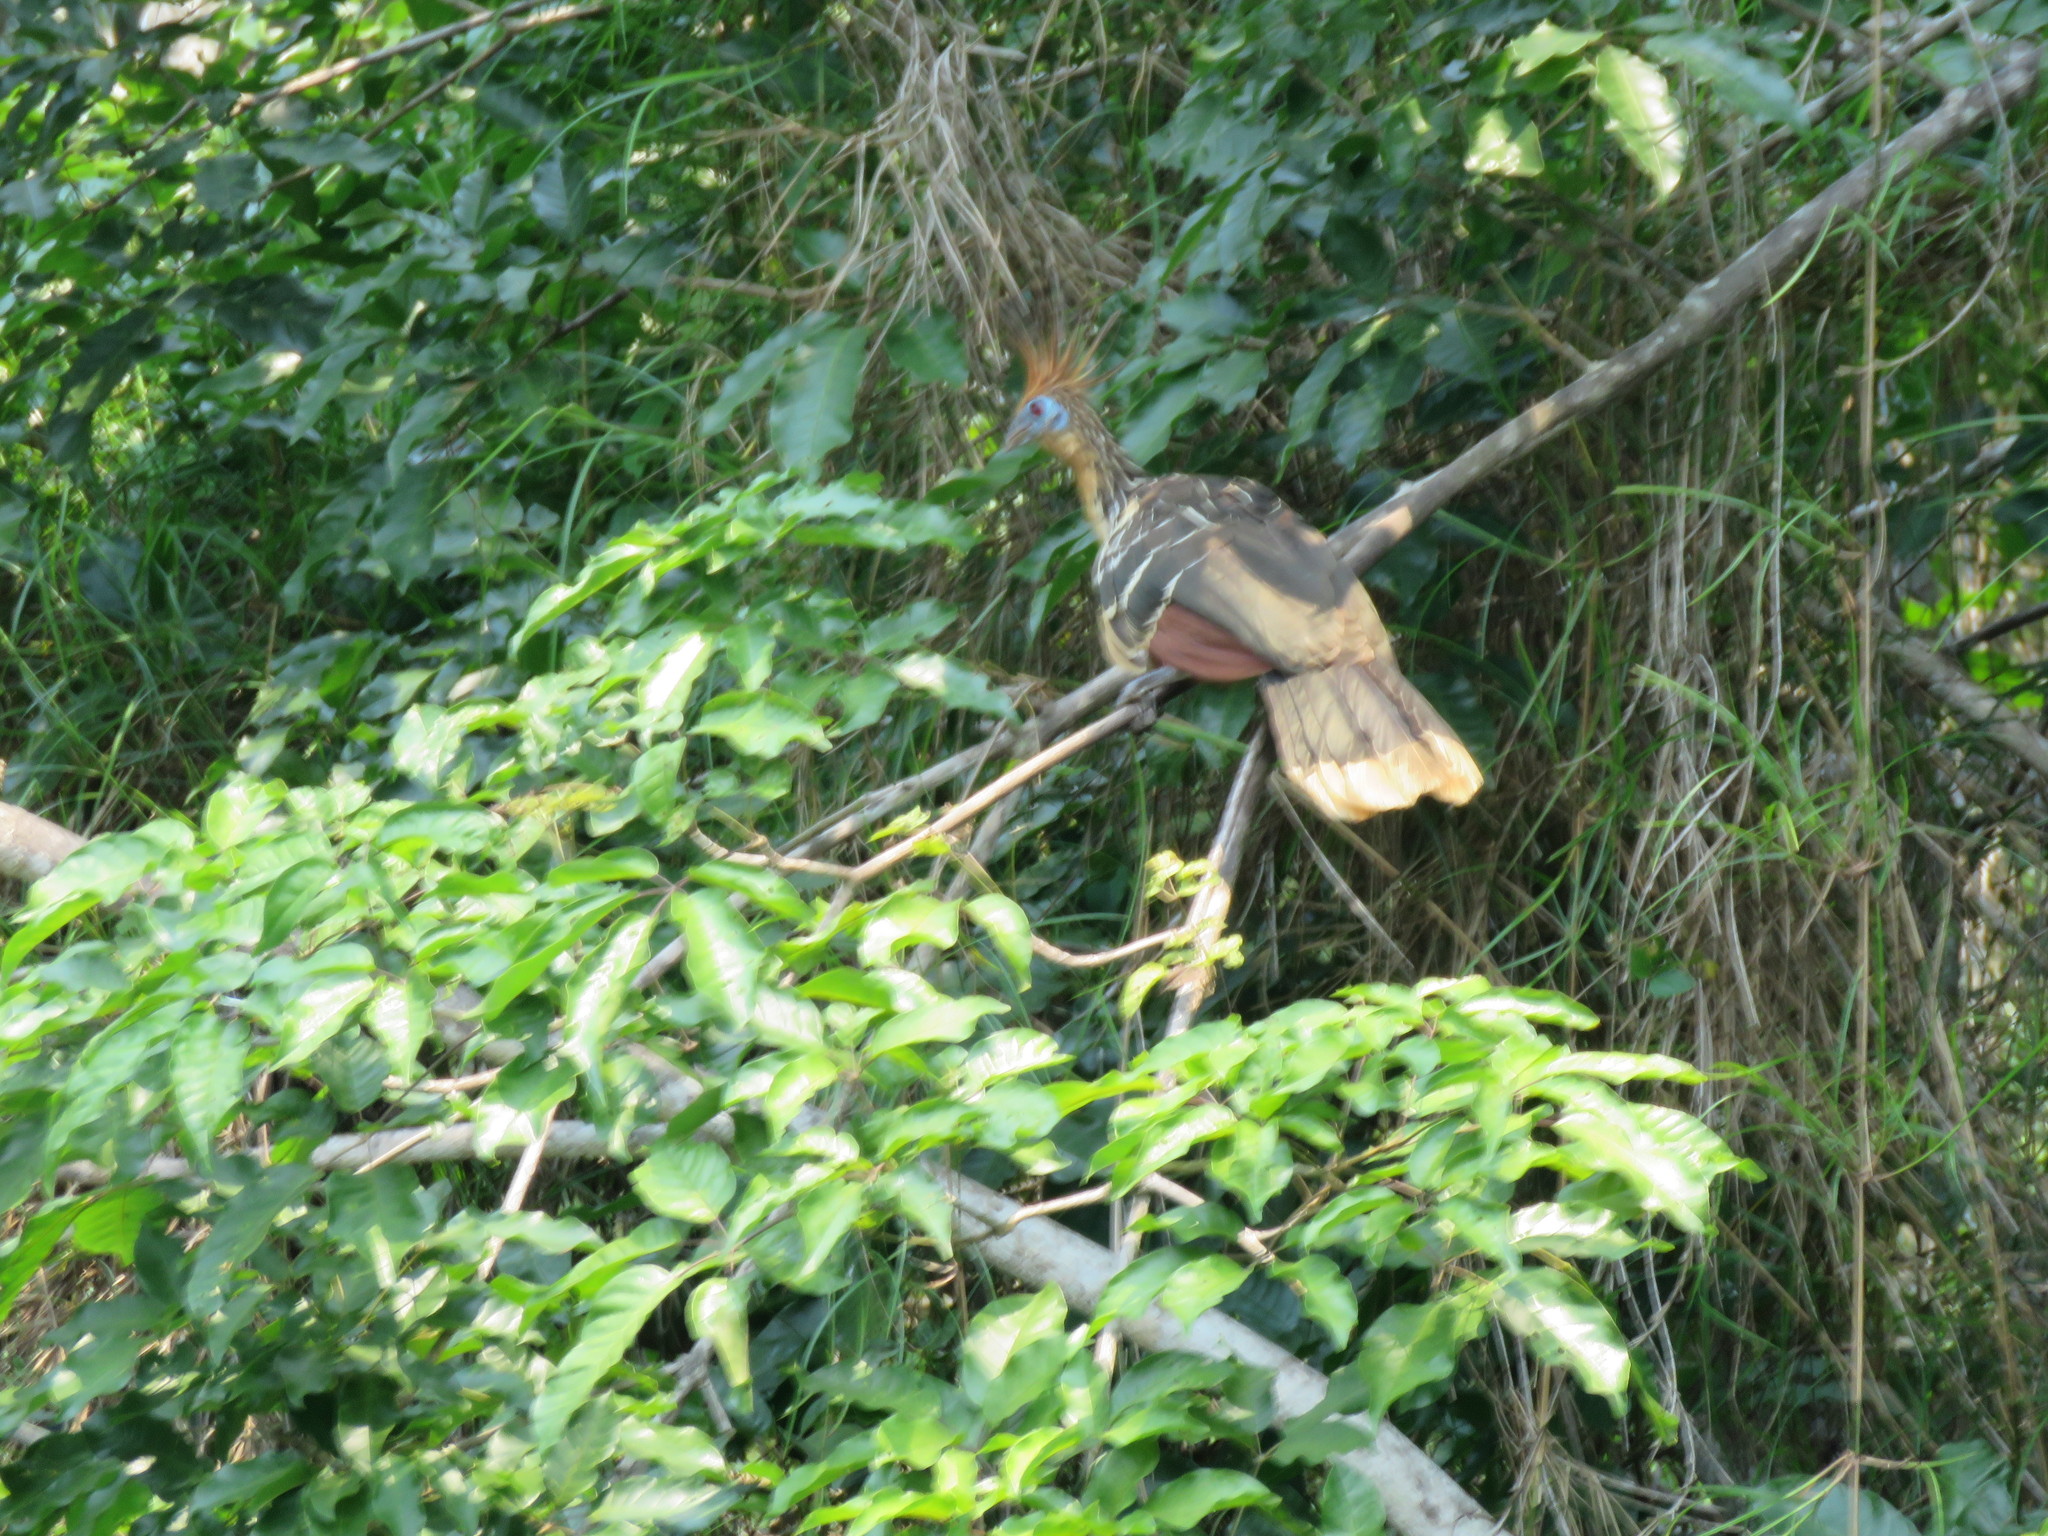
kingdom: Animalia
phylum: Chordata
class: Aves
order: Opisthocomiformes
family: Opisthocomidae
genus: Opisthocomus
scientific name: Opisthocomus hoazin
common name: Hoatzin
